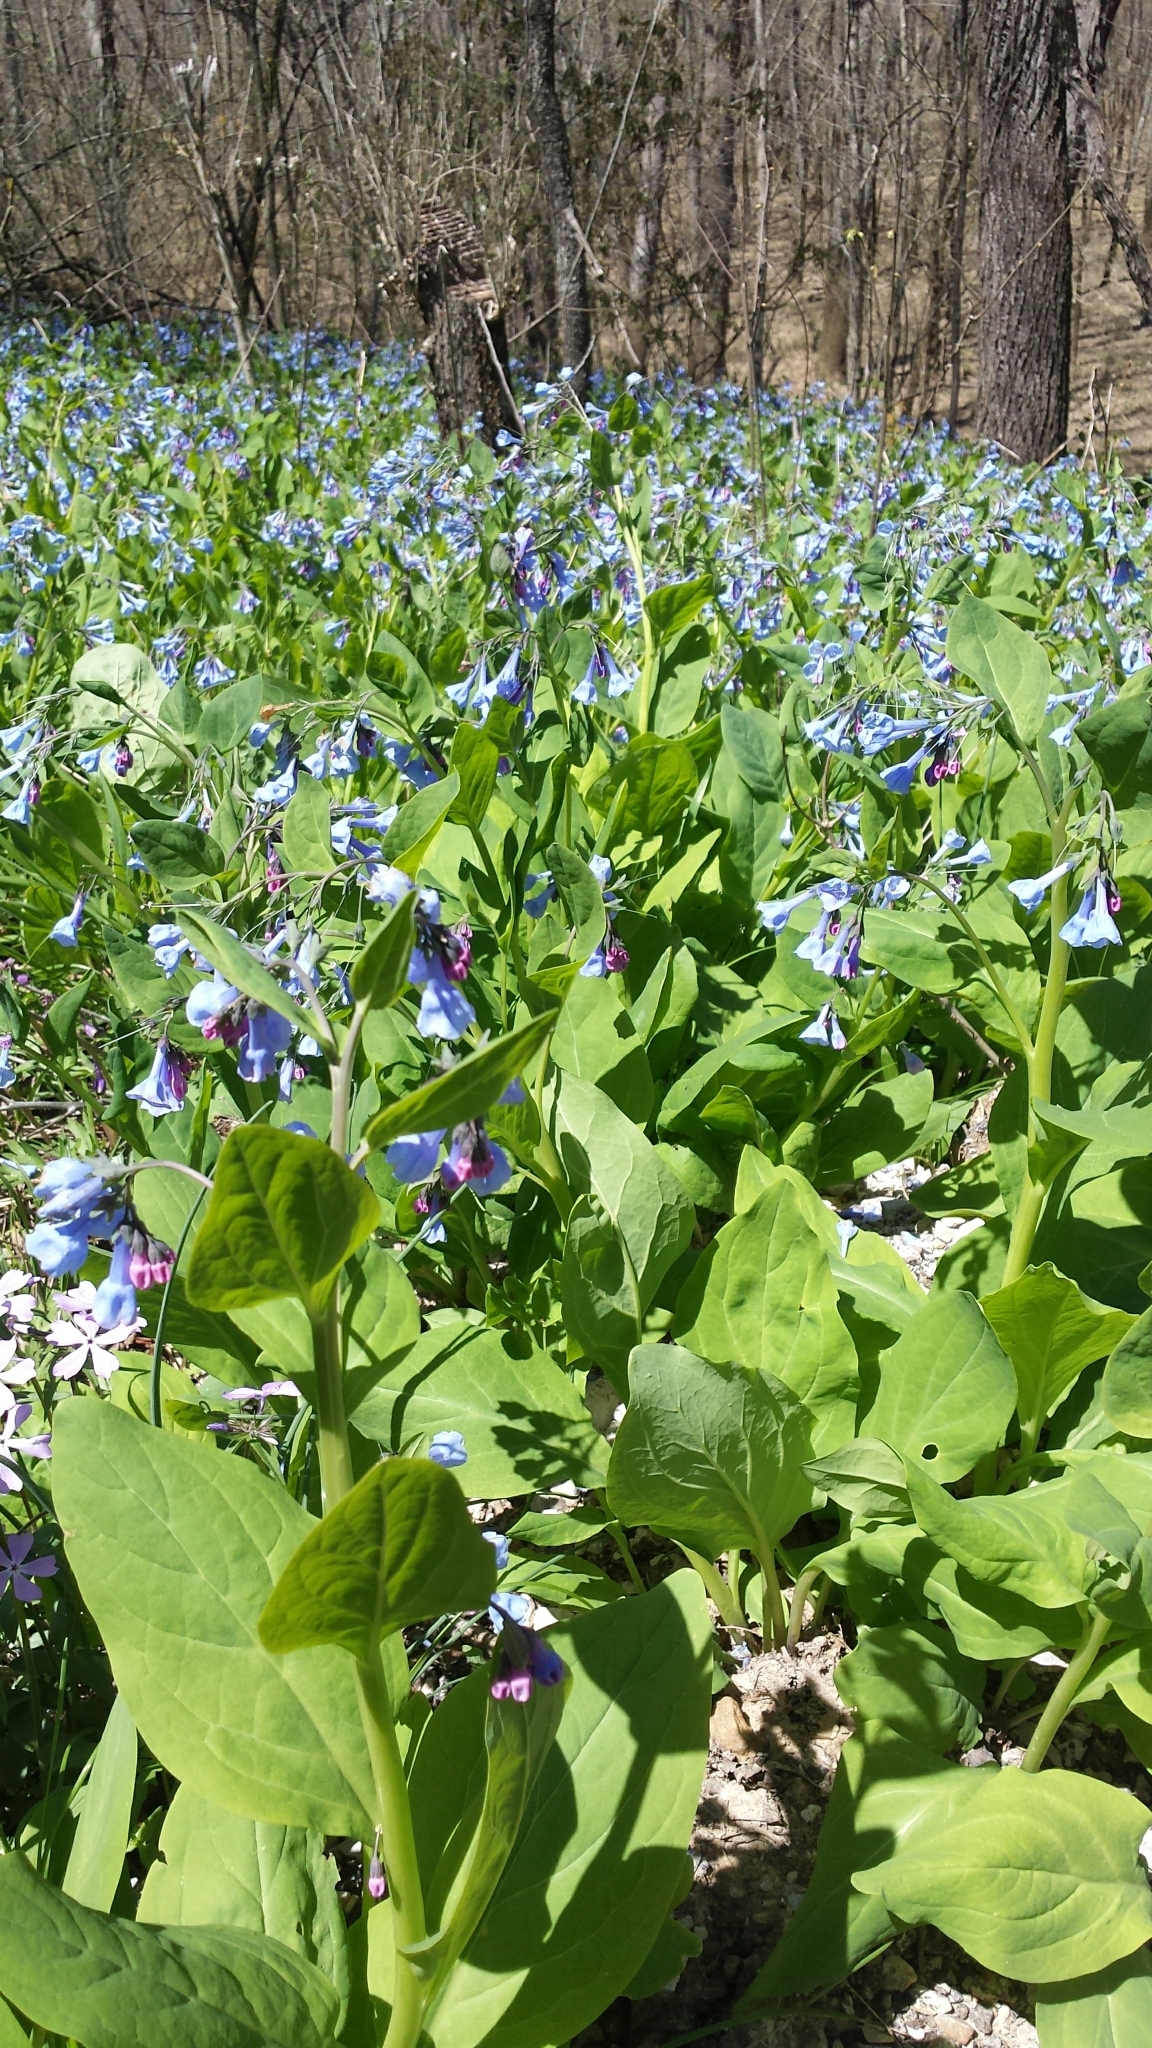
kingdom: Plantae
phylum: Tracheophyta
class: Magnoliopsida
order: Boraginales
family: Boraginaceae
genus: Mertensia
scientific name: Mertensia virginica
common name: Virginia bluebells
